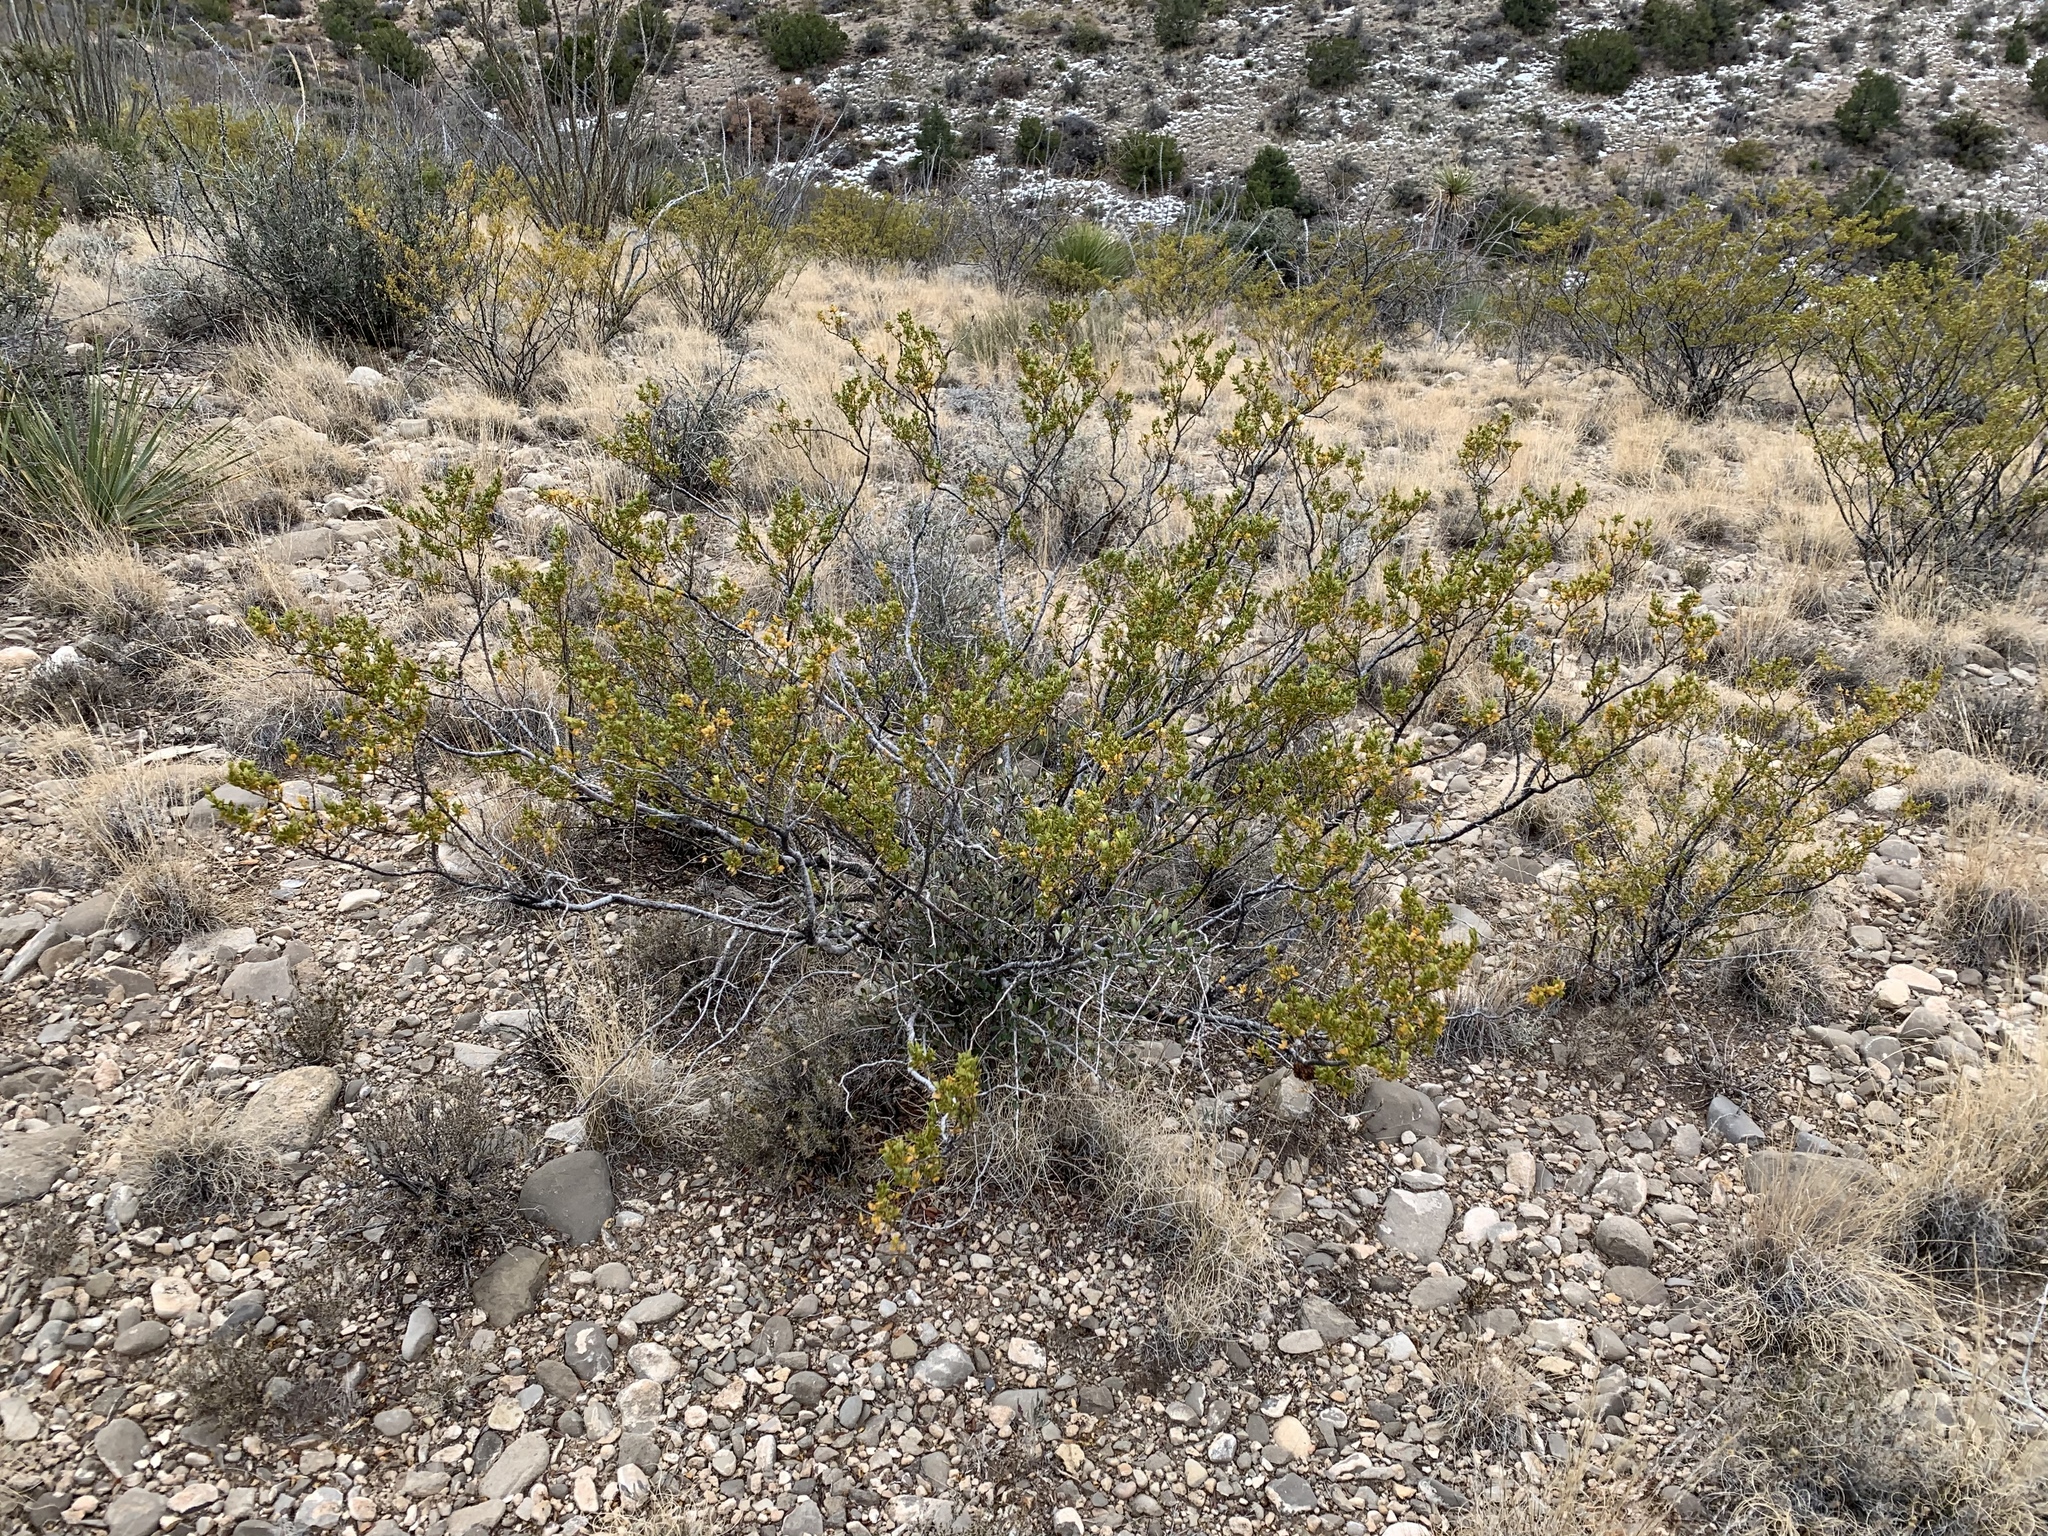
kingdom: Plantae
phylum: Tracheophyta
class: Magnoliopsida
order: Zygophyllales
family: Zygophyllaceae
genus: Larrea
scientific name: Larrea tridentata
